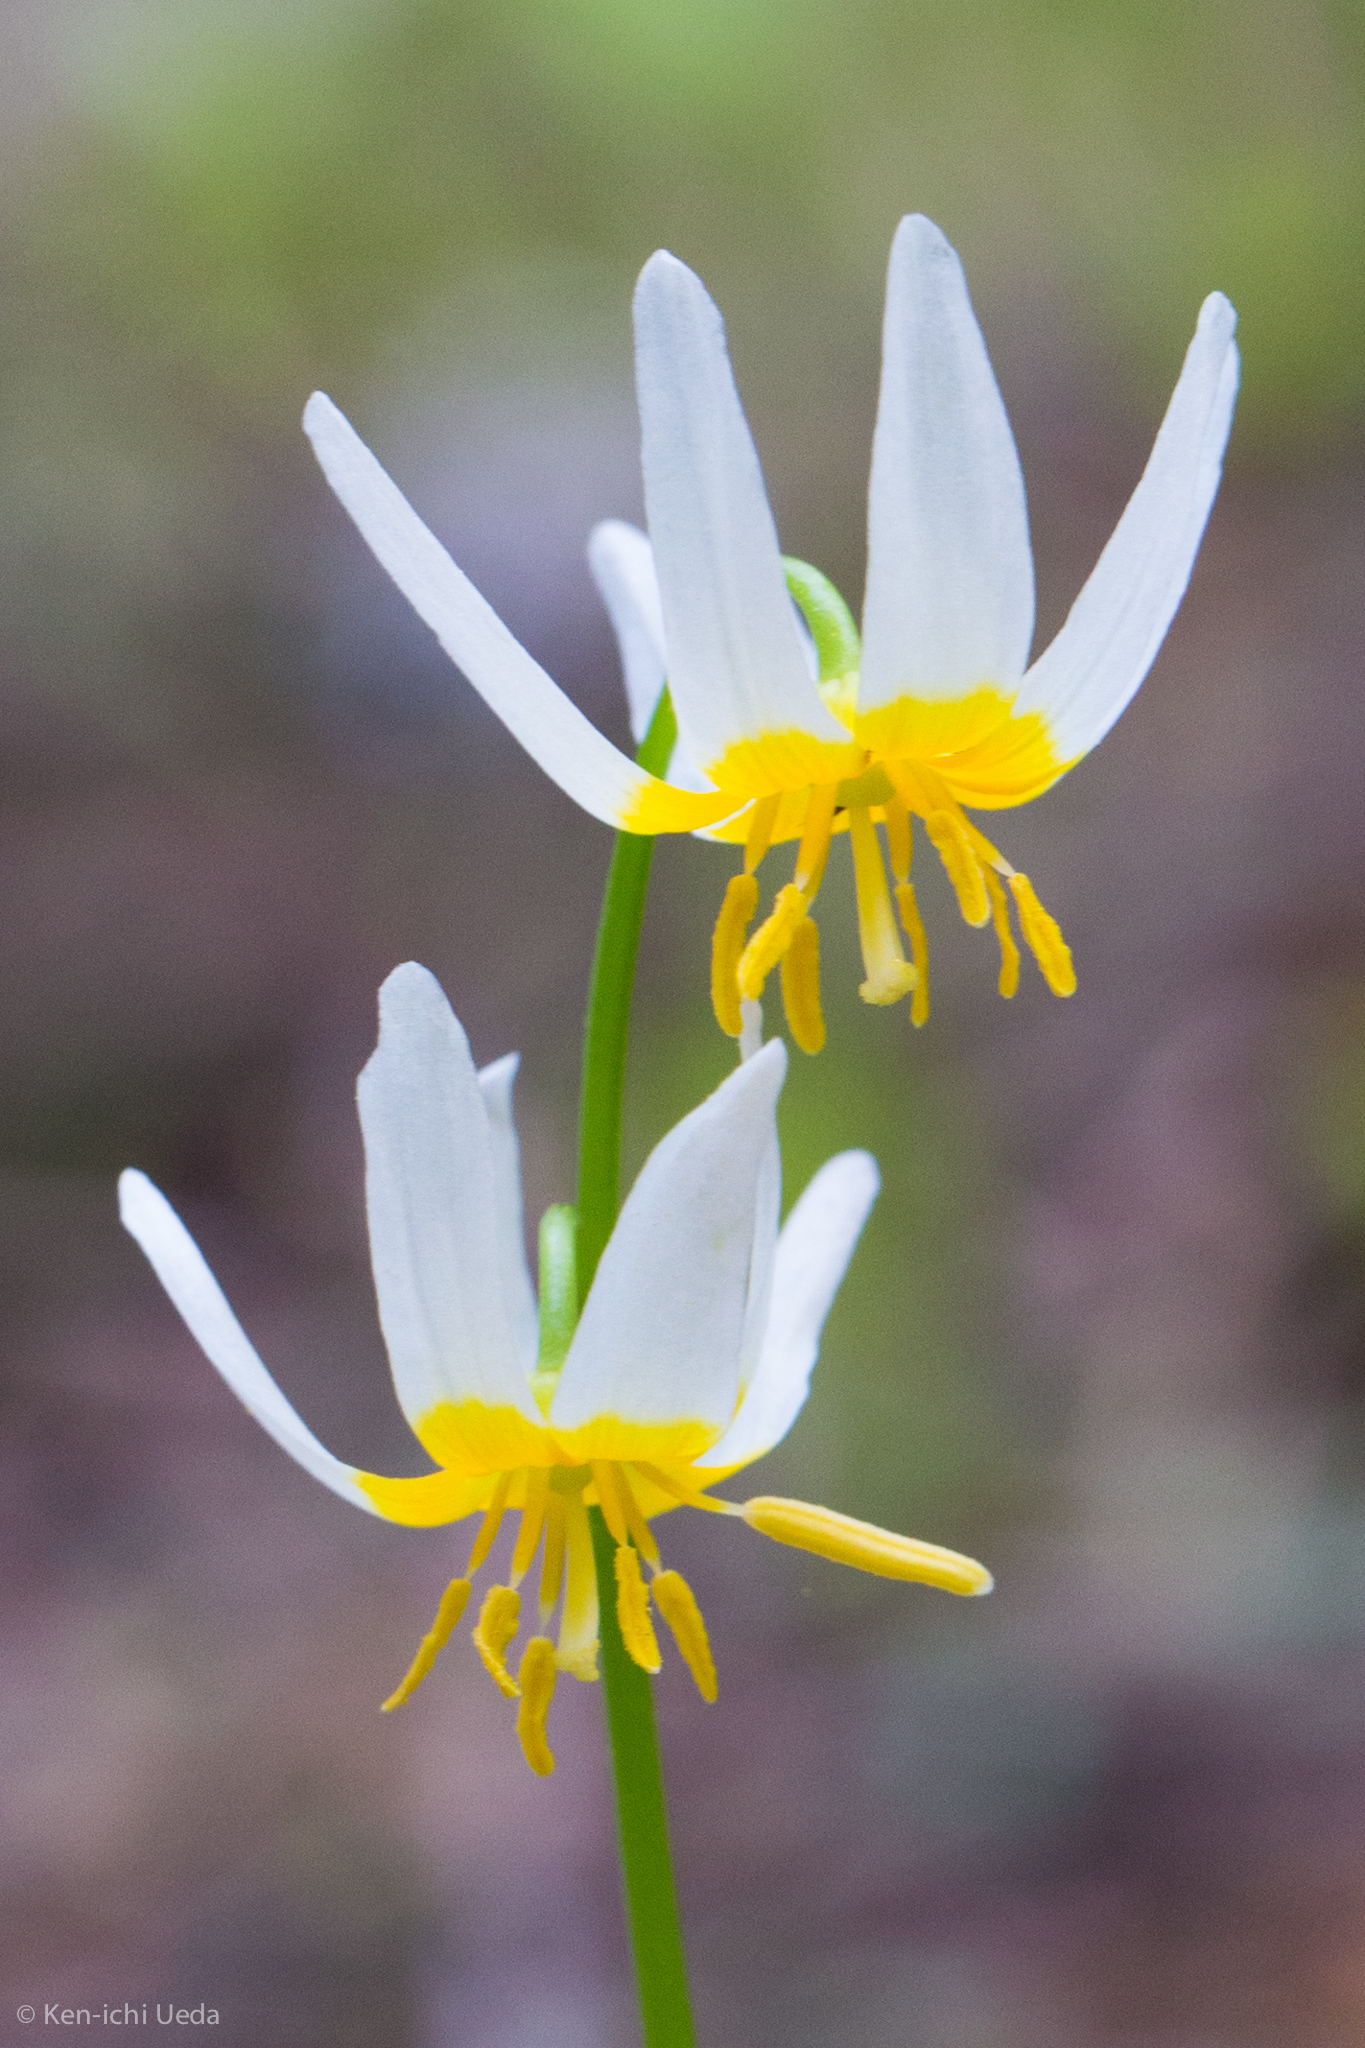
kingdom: Plantae
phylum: Tracheophyta
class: Liliopsida
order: Liliales
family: Liliaceae
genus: Erythronium
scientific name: Erythronium purpurascens
